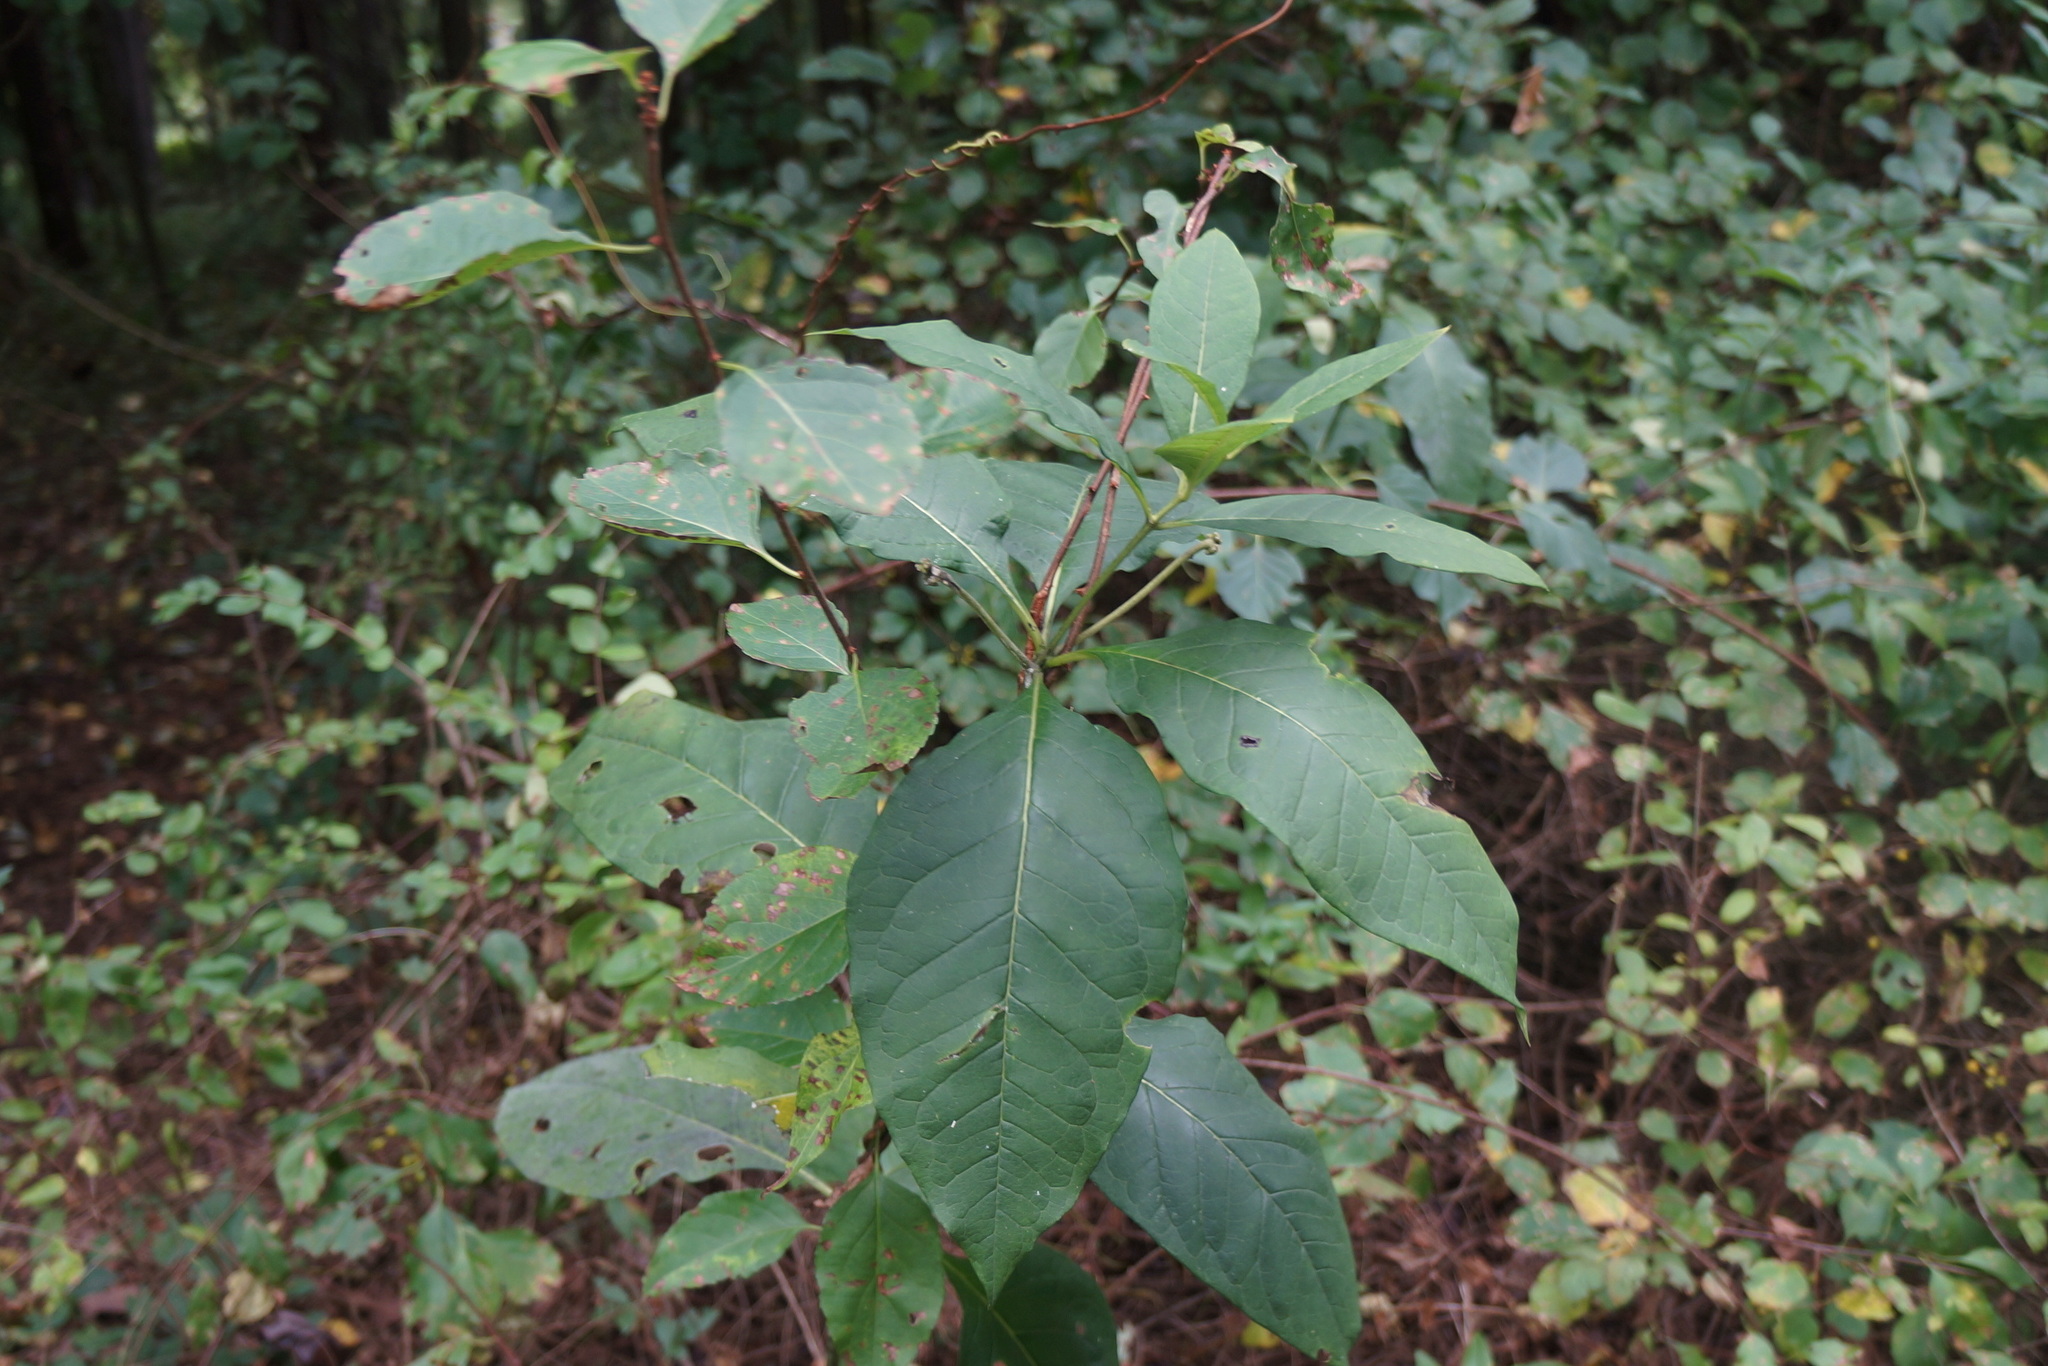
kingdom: Plantae
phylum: Tracheophyta
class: Magnoliopsida
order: Gentianales
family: Apocynaceae
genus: Asclepias
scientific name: Asclepias exaltata
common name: Poke milkweed
